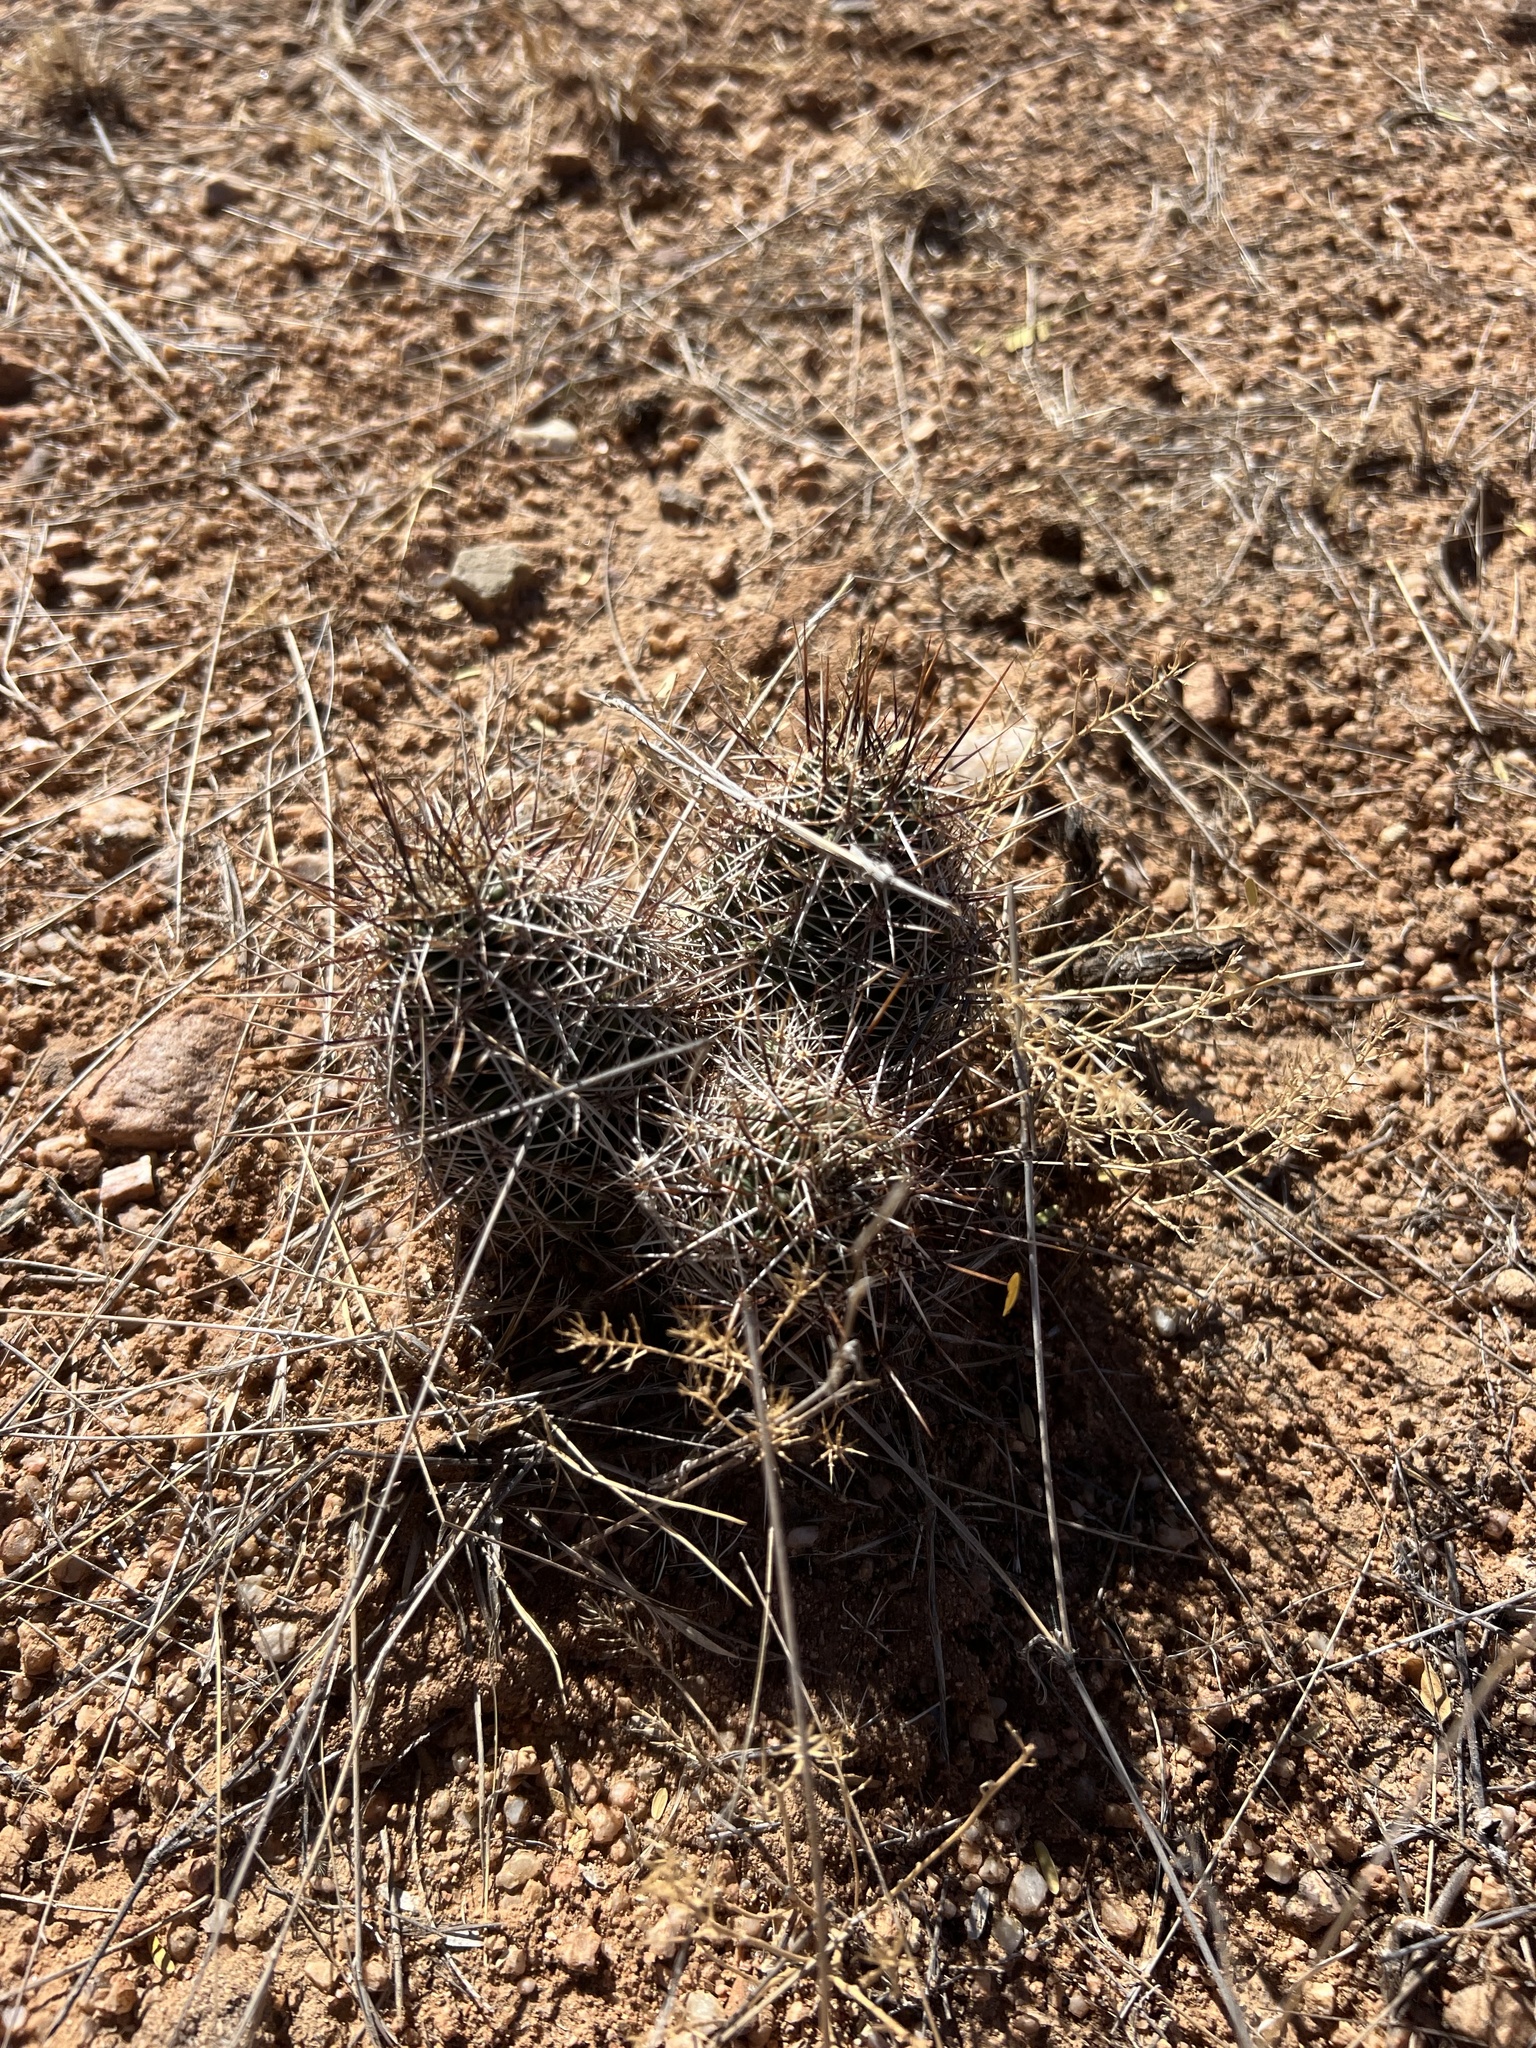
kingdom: Plantae
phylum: Tracheophyta
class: Magnoliopsida
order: Caryophyllales
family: Cactaceae
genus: Echinocereus
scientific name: Echinocereus fasciculatus
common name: Bundle hedgehog
